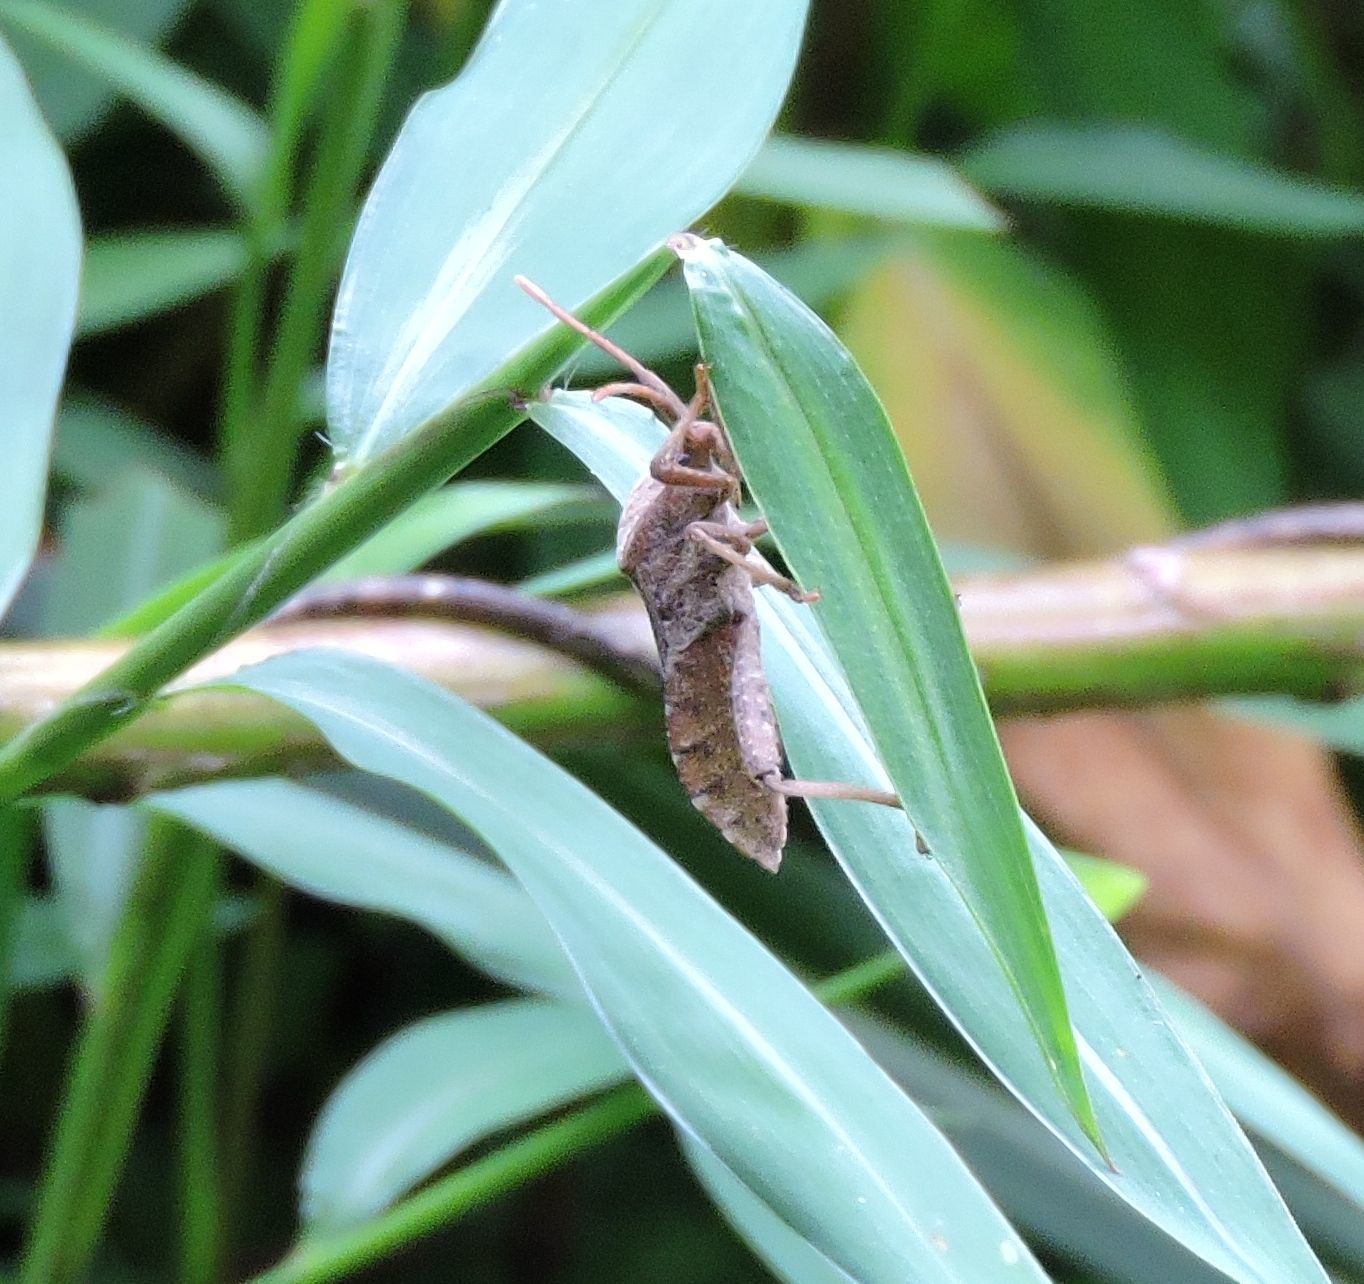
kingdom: Animalia
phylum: Arthropoda
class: Insecta
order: Hemiptera
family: Coreidae
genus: Piezogaster
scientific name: Piezogaster calcarator
